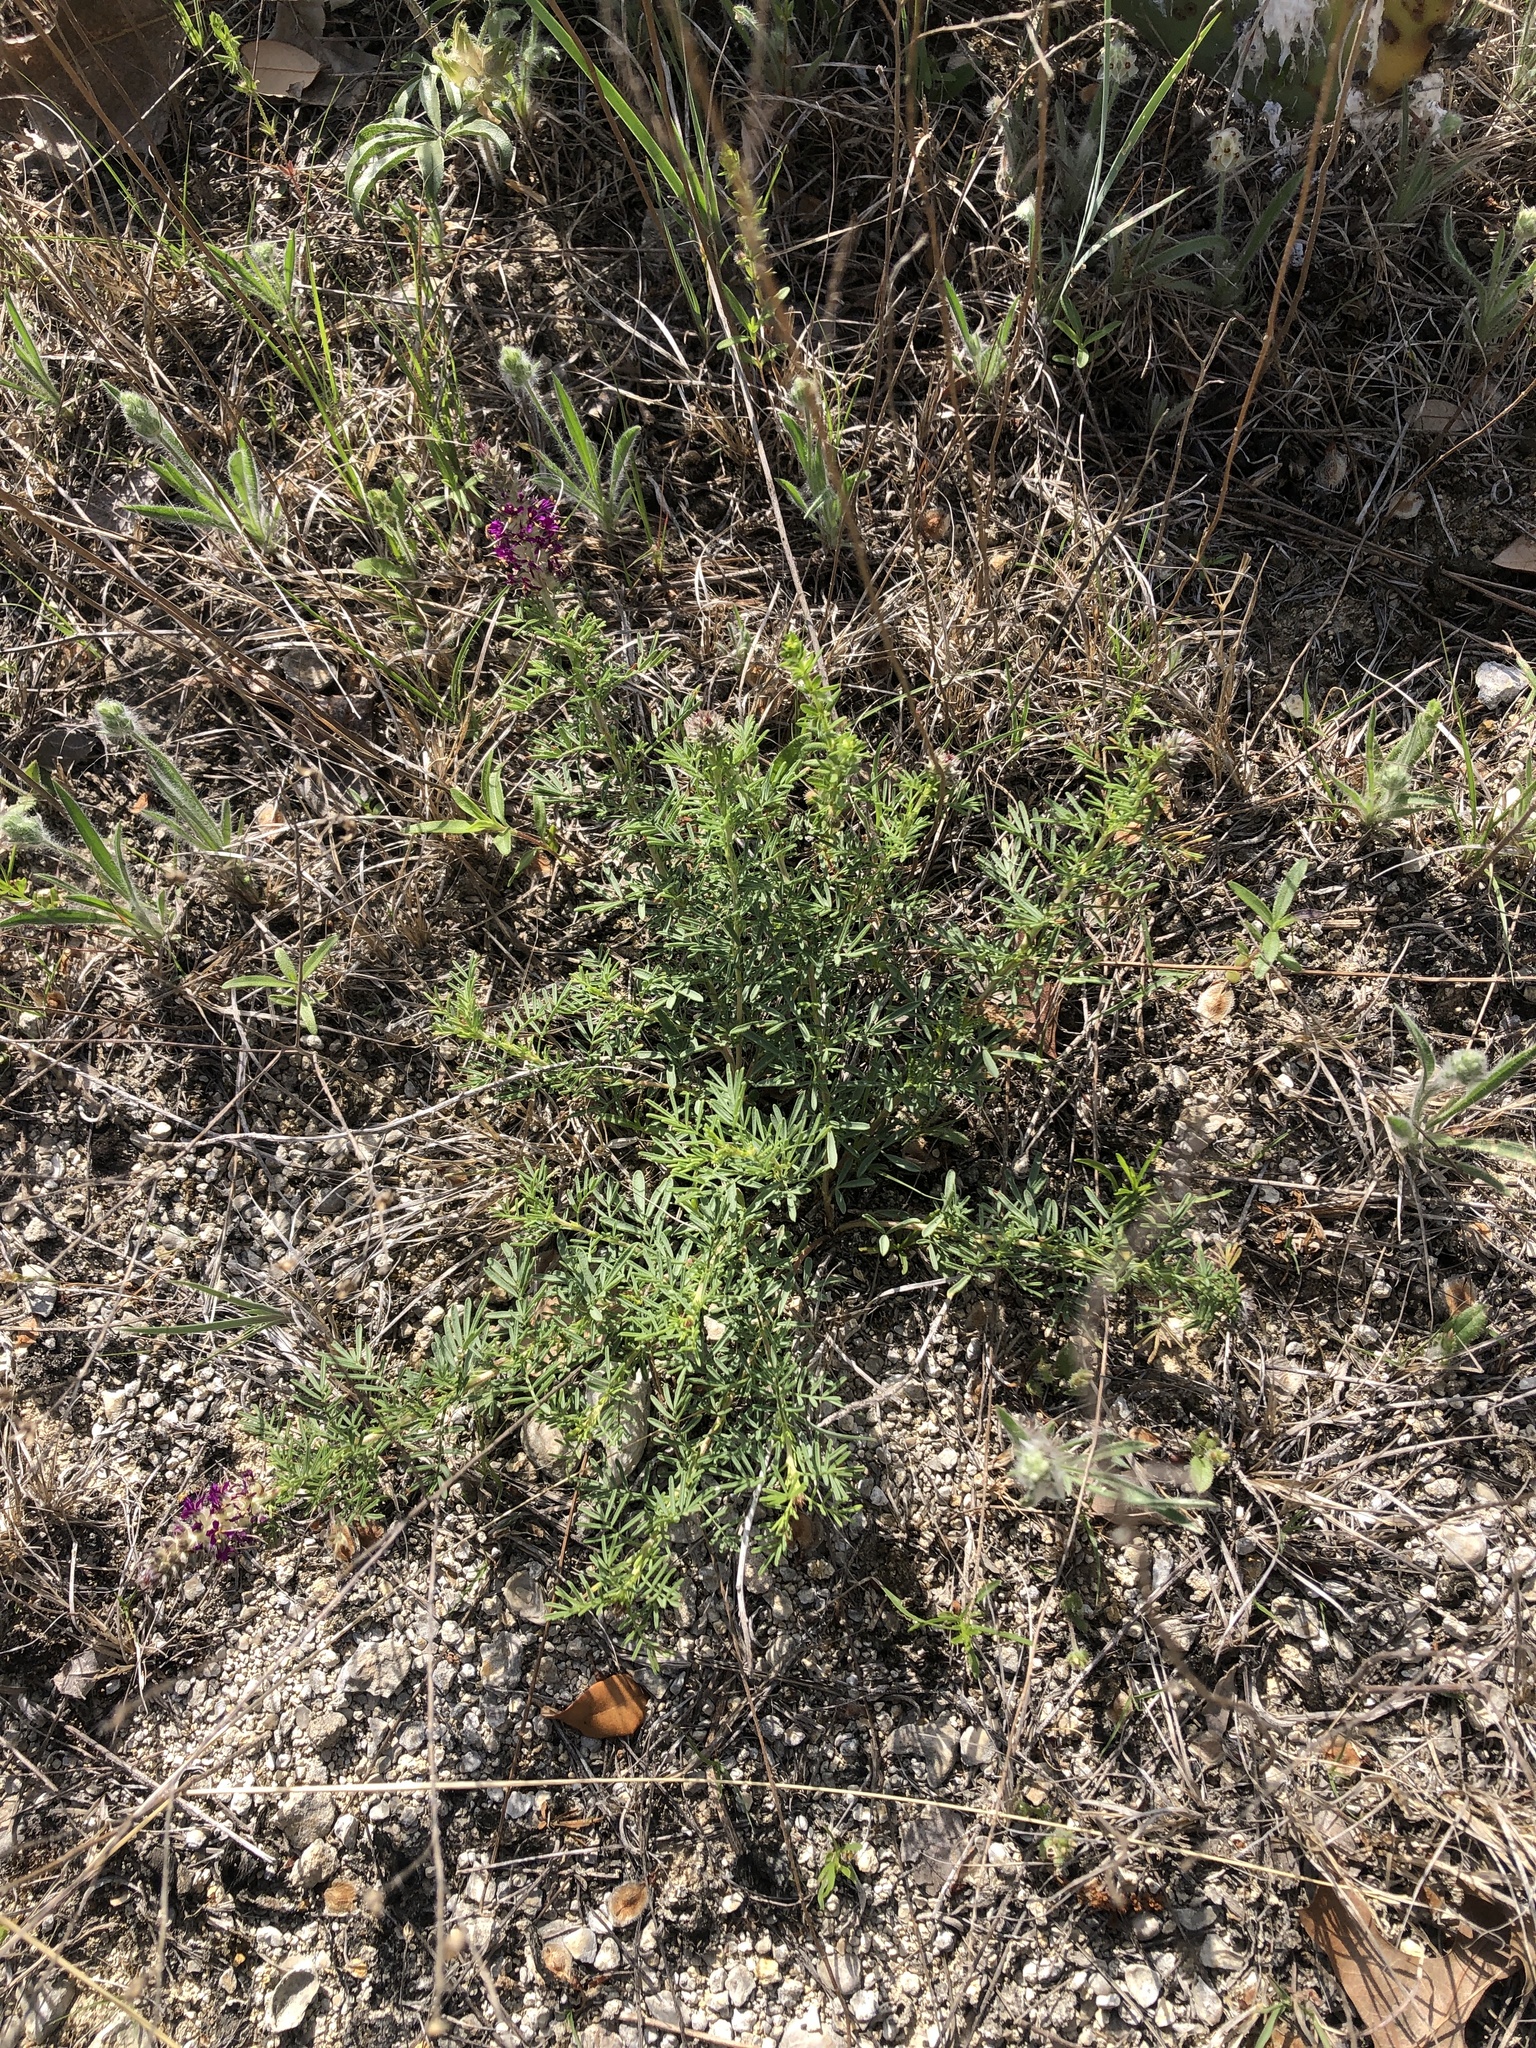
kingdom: Plantae
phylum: Tracheophyta
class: Magnoliopsida
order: Fabales
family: Fabaceae
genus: Dalea
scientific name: Dalea reverchonii
